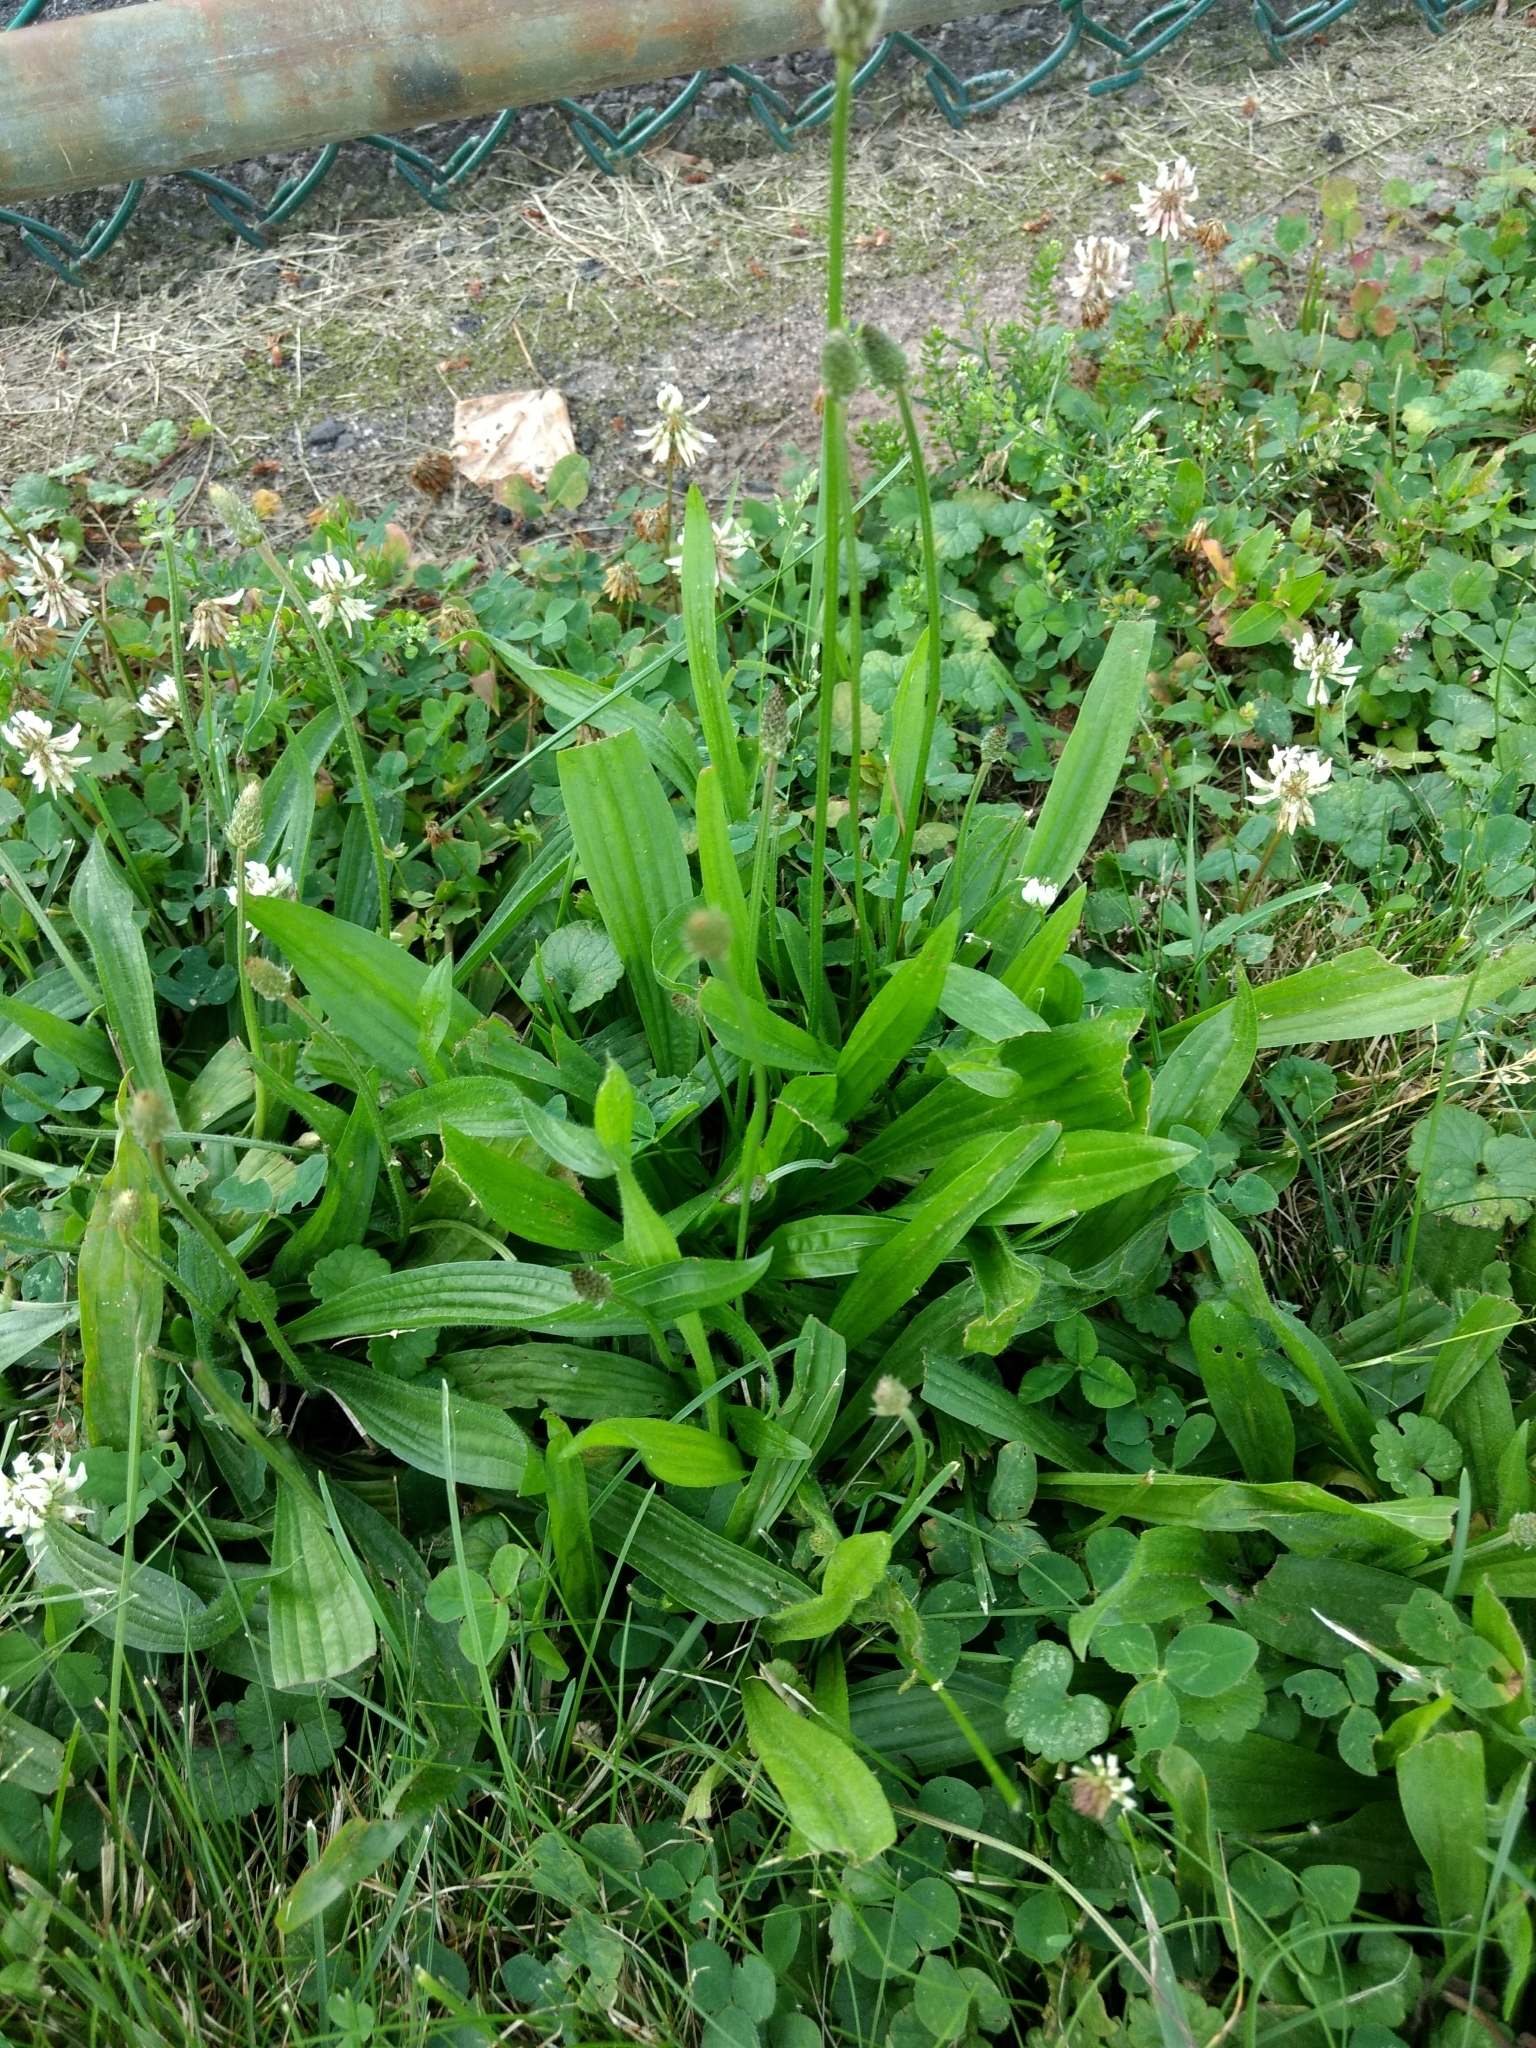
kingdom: Plantae
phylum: Tracheophyta
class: Magnoliopsida
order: Lamiales
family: Plantaginaceae
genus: Plantago
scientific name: Plantago lanceolata
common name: Ribwort plantain
